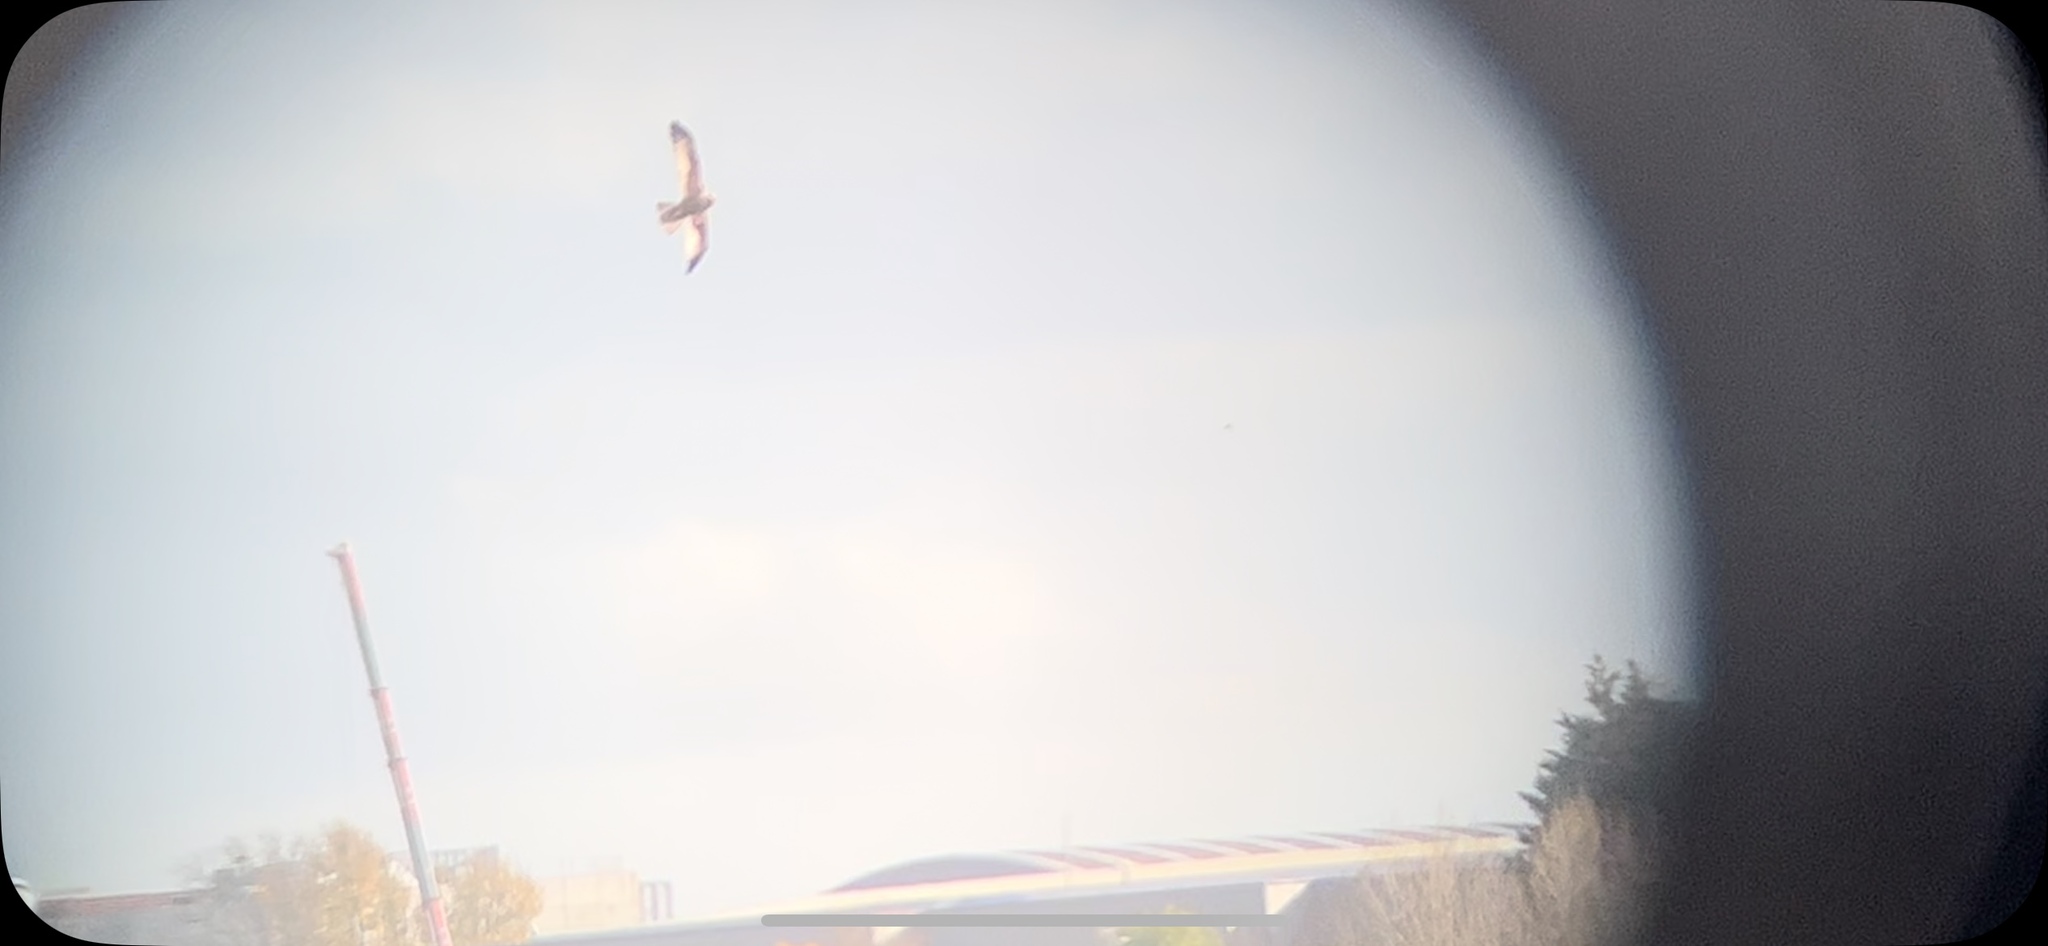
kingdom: Animalia
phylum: Chordata
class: Aves
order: Accipitriformes
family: Accipitridae
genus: Circus
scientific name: Circus aeruginosus
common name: Western marsh harrier
